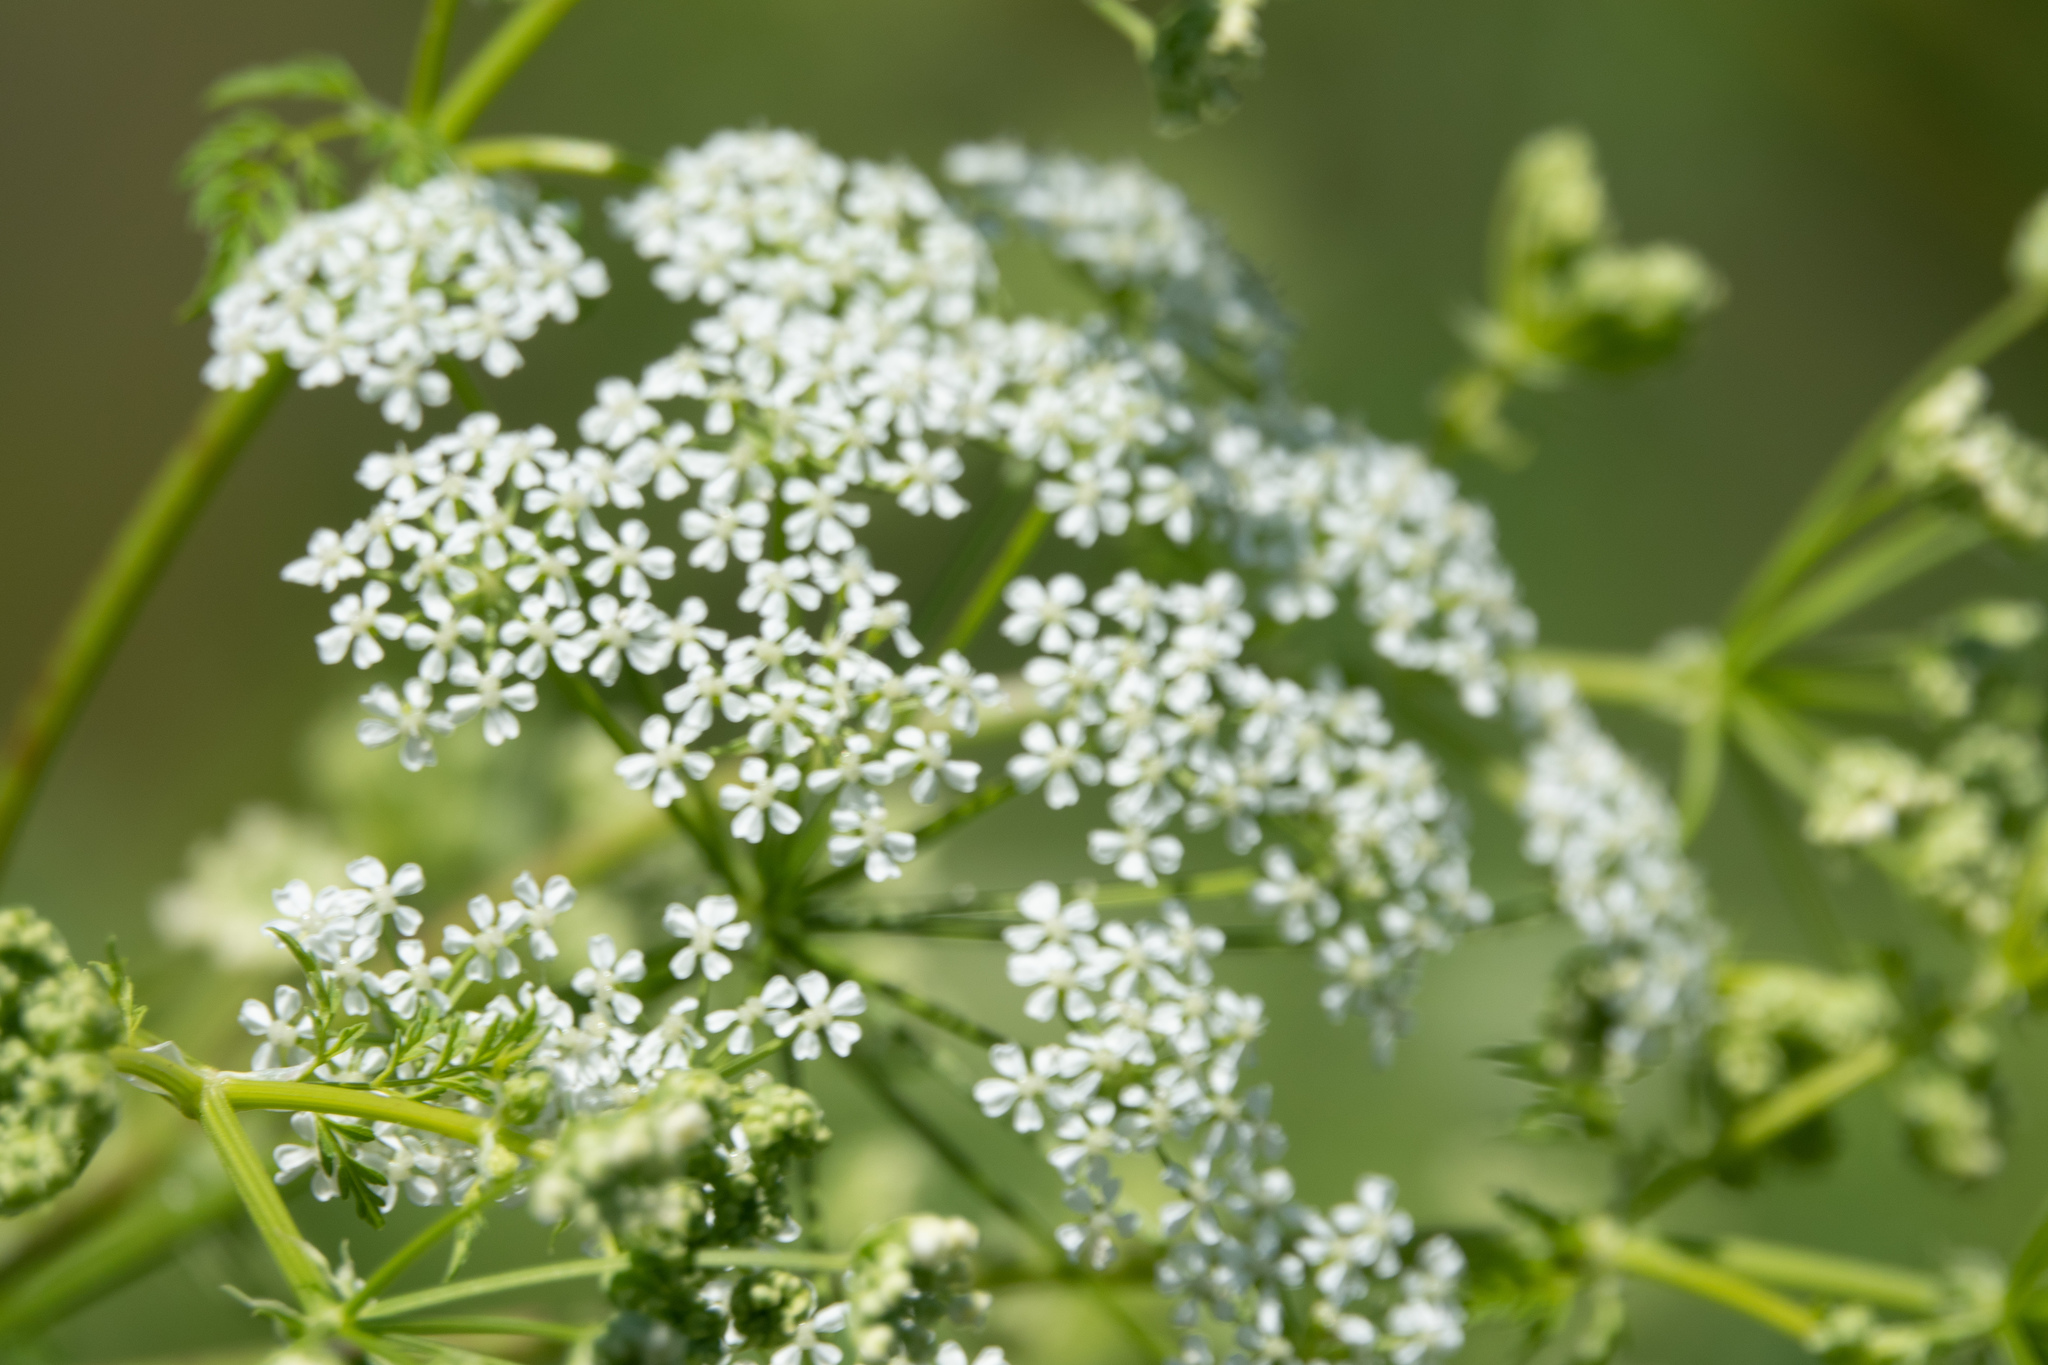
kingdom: Plantae
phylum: Tracheophyta
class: Magnoliopsida
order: Rosales
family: Urticaceae
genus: Urtica
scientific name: Urtica dioica
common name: Common nettle
